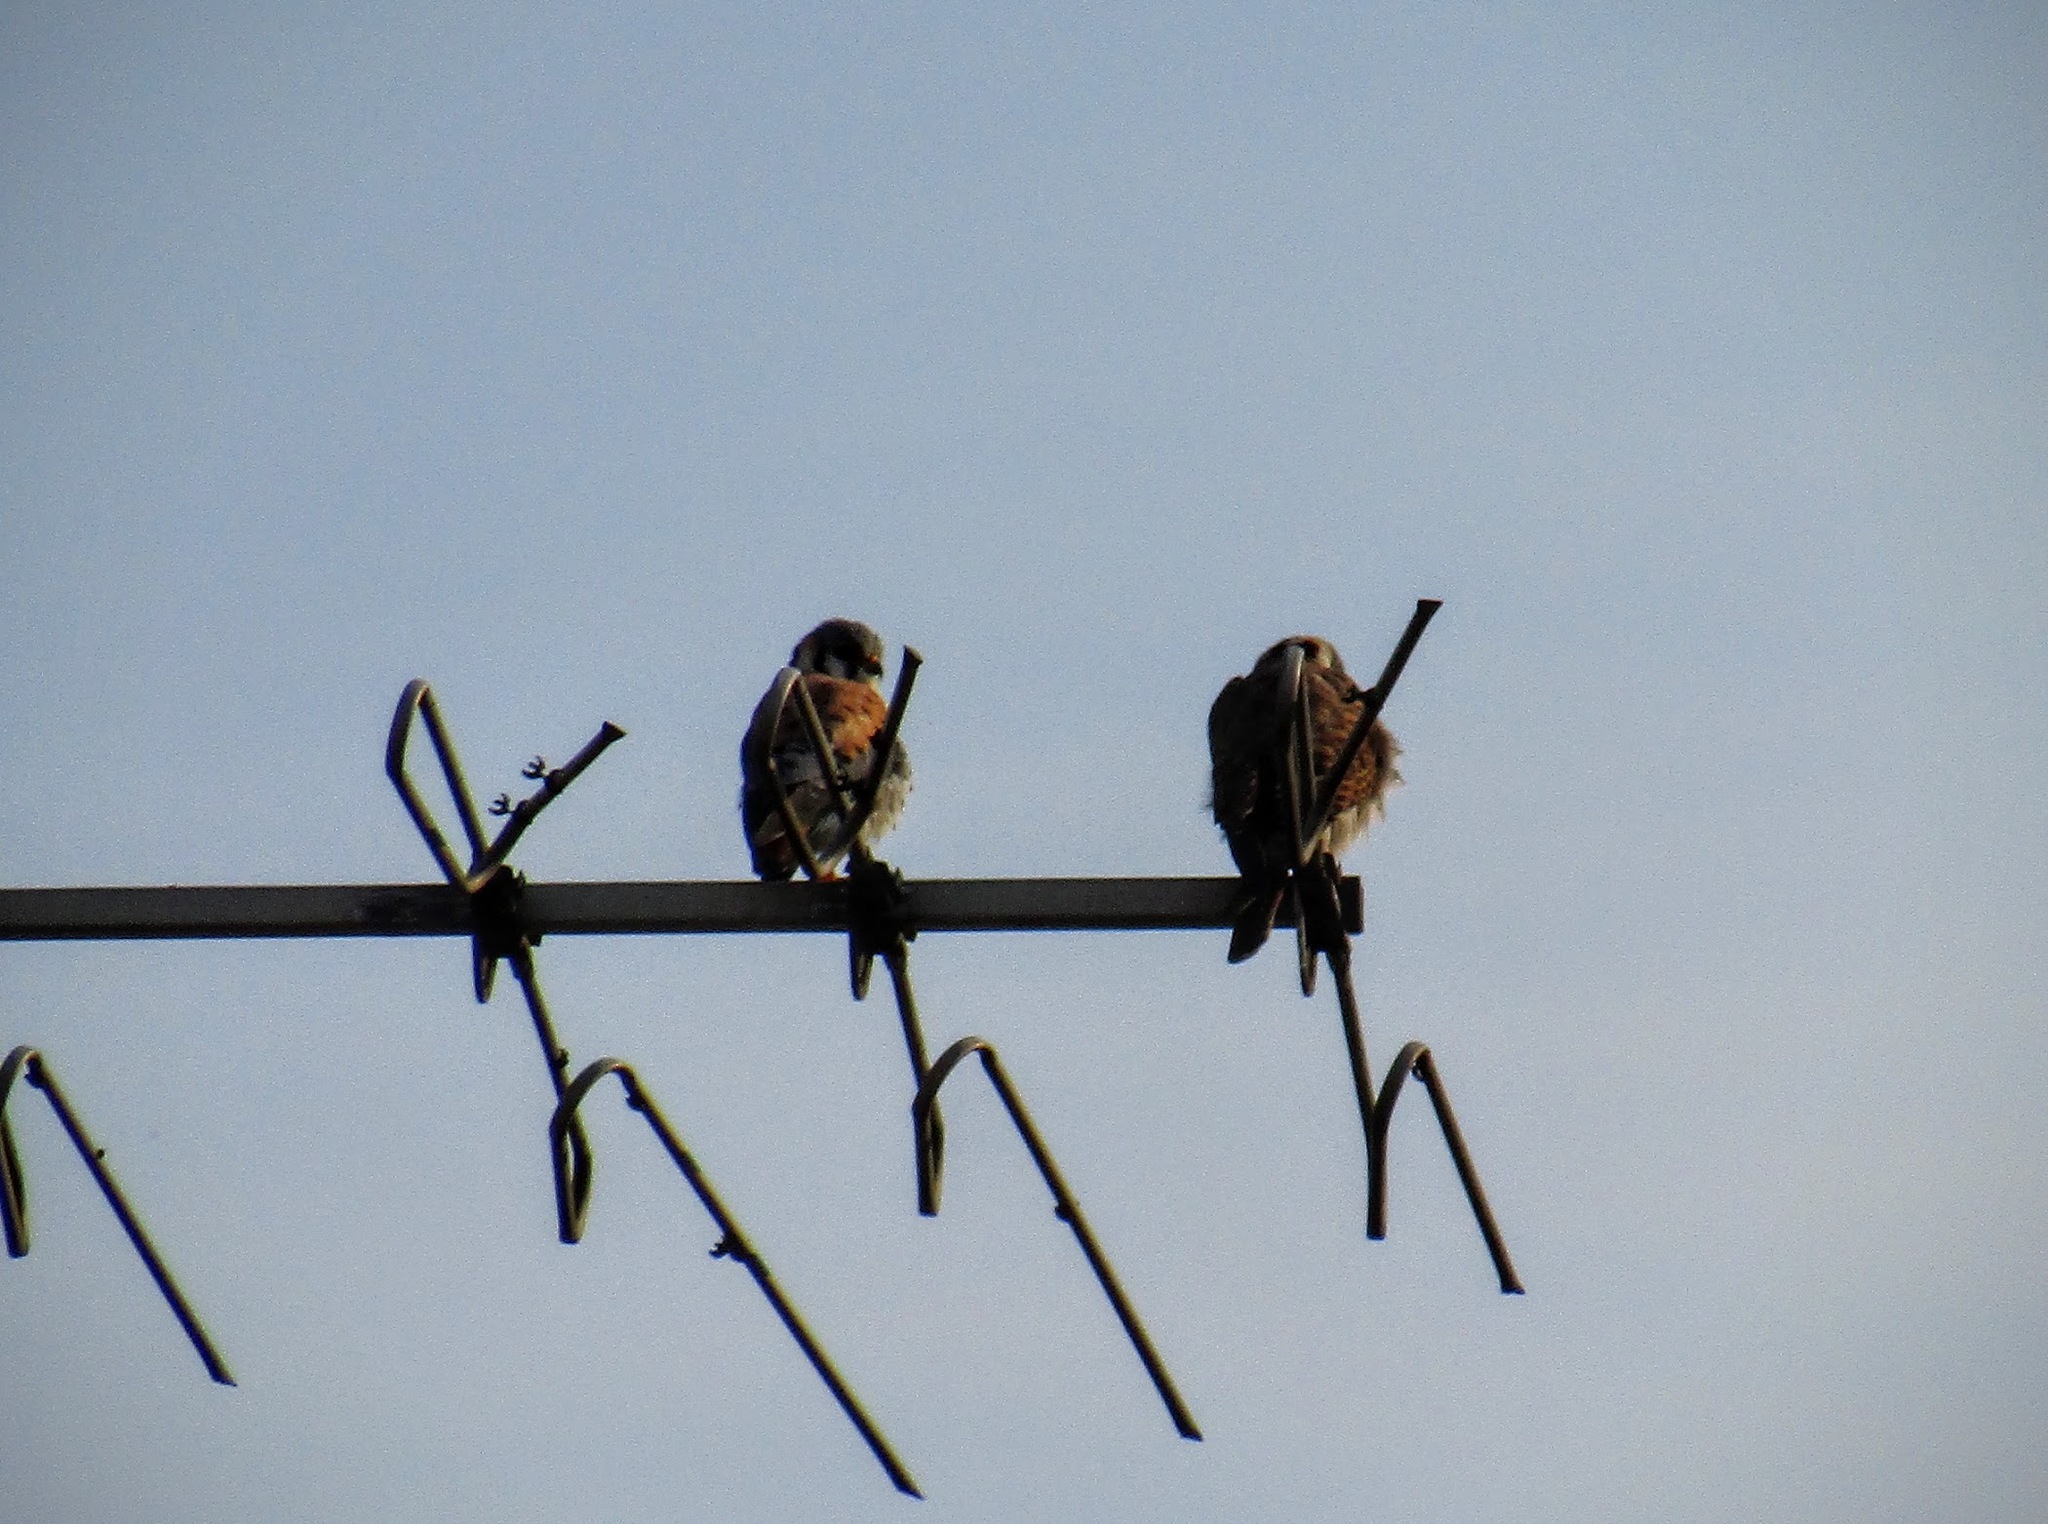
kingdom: Animalia
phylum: Chordata
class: Aves
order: Falconiformes
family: Falconidae
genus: Falco
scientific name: Falco sparverius
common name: American kestrel
